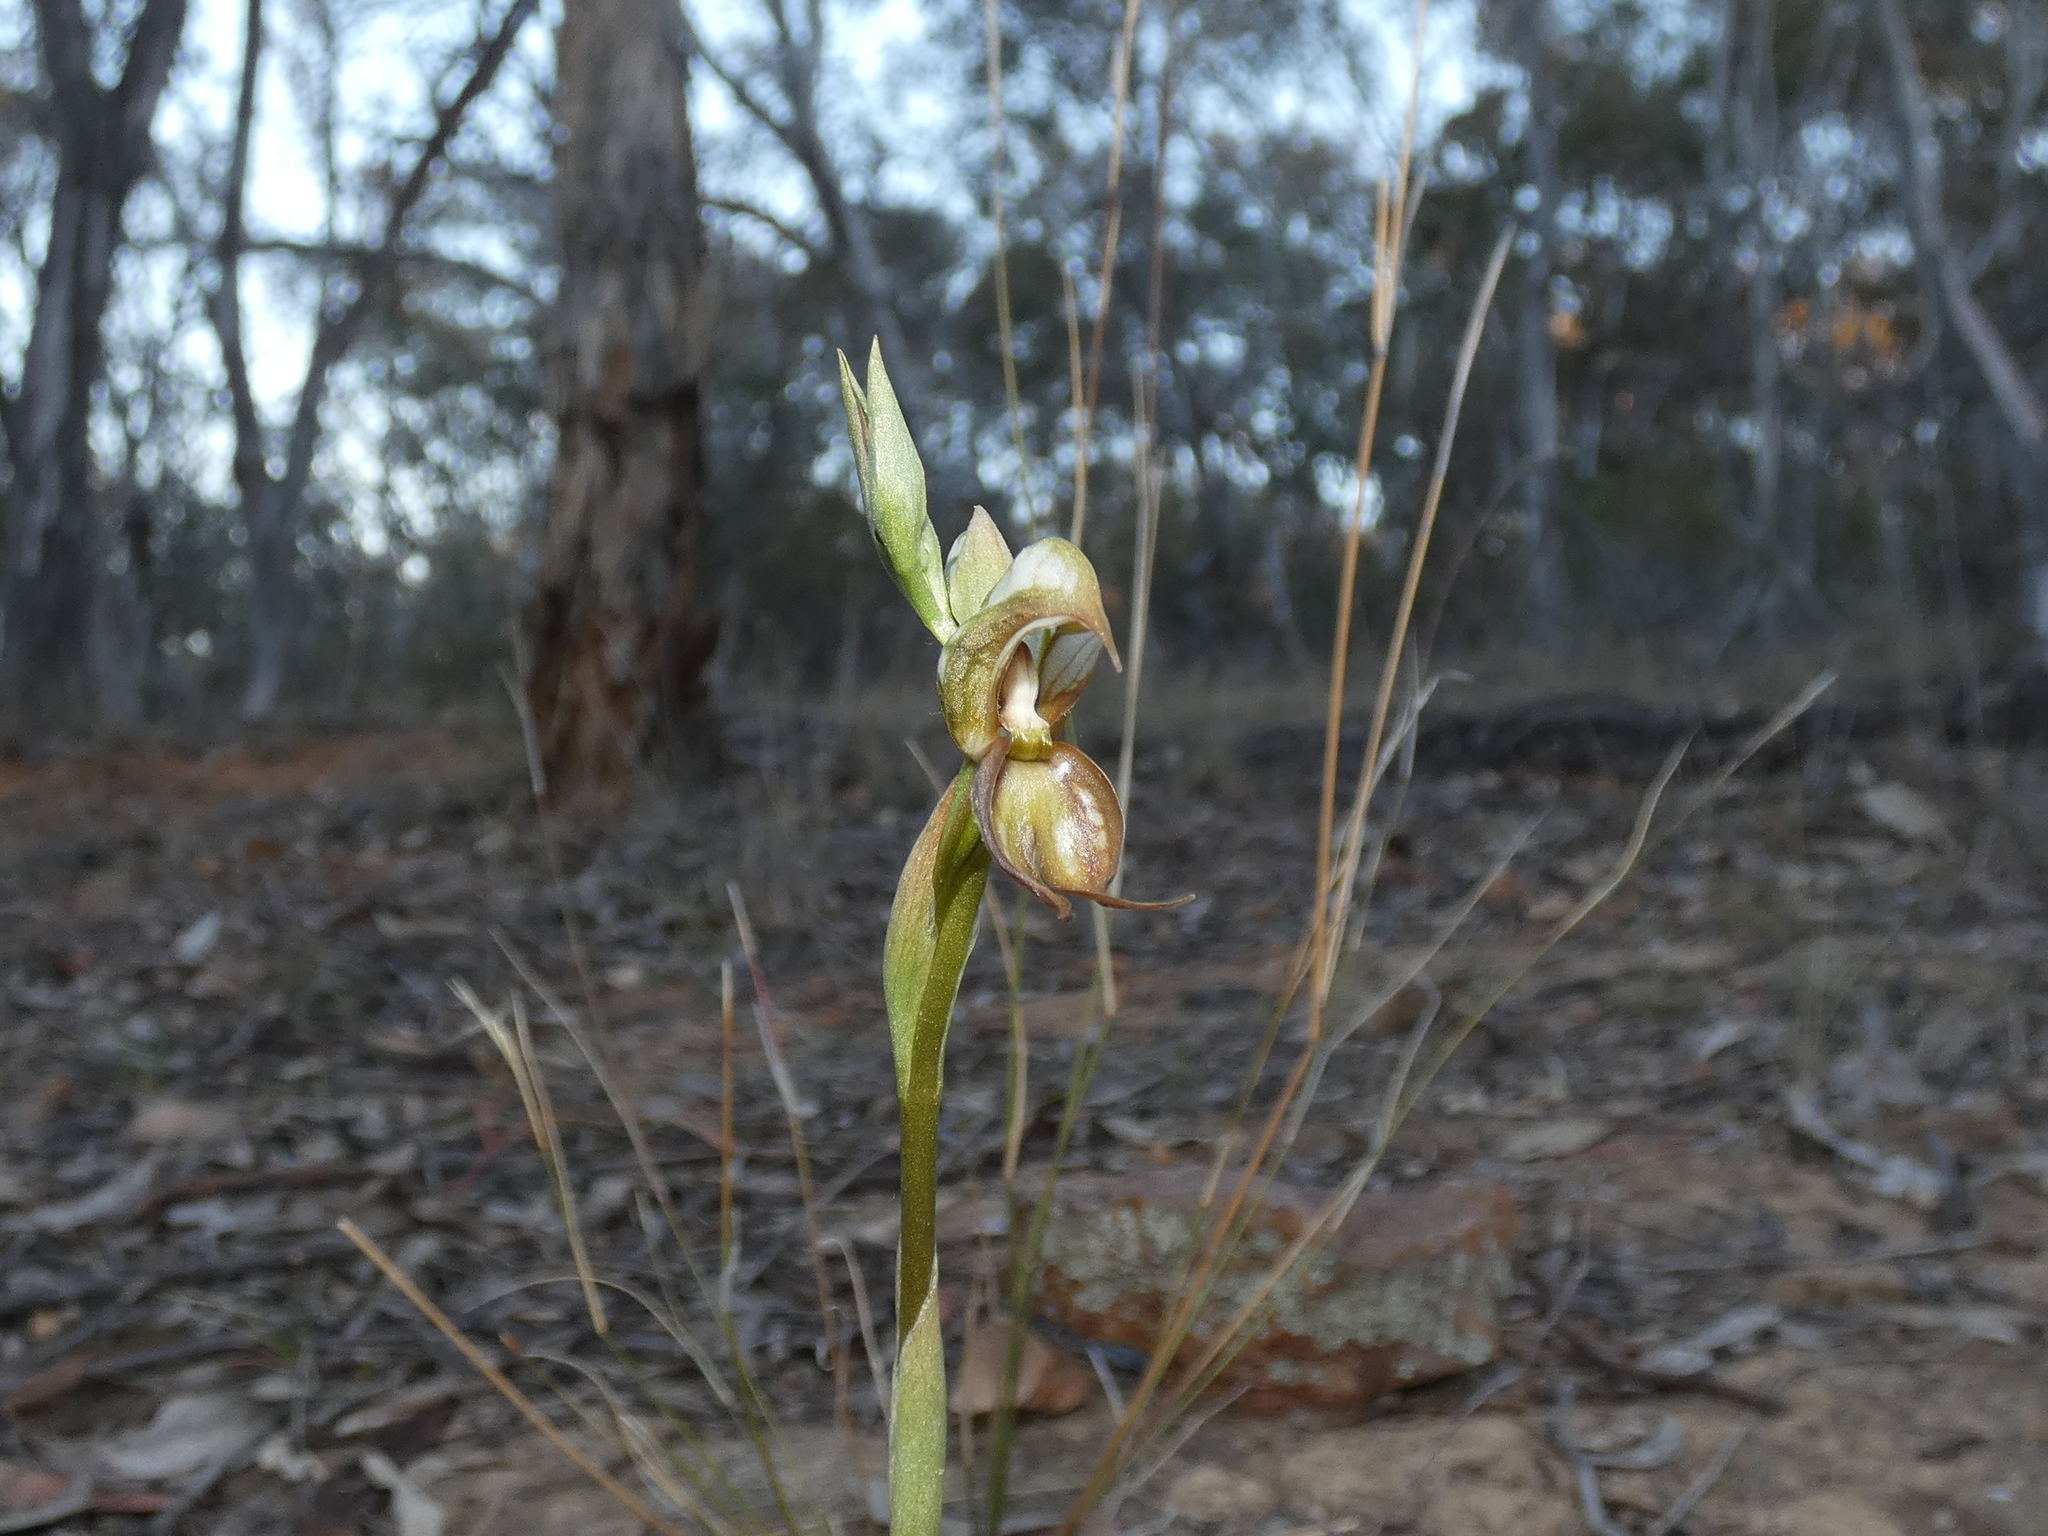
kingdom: Plantae
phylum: Tracheophyta
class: Liliopsida
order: Asparagales
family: Orchidaceae
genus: Pterostylis
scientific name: Pterostylis hamata
